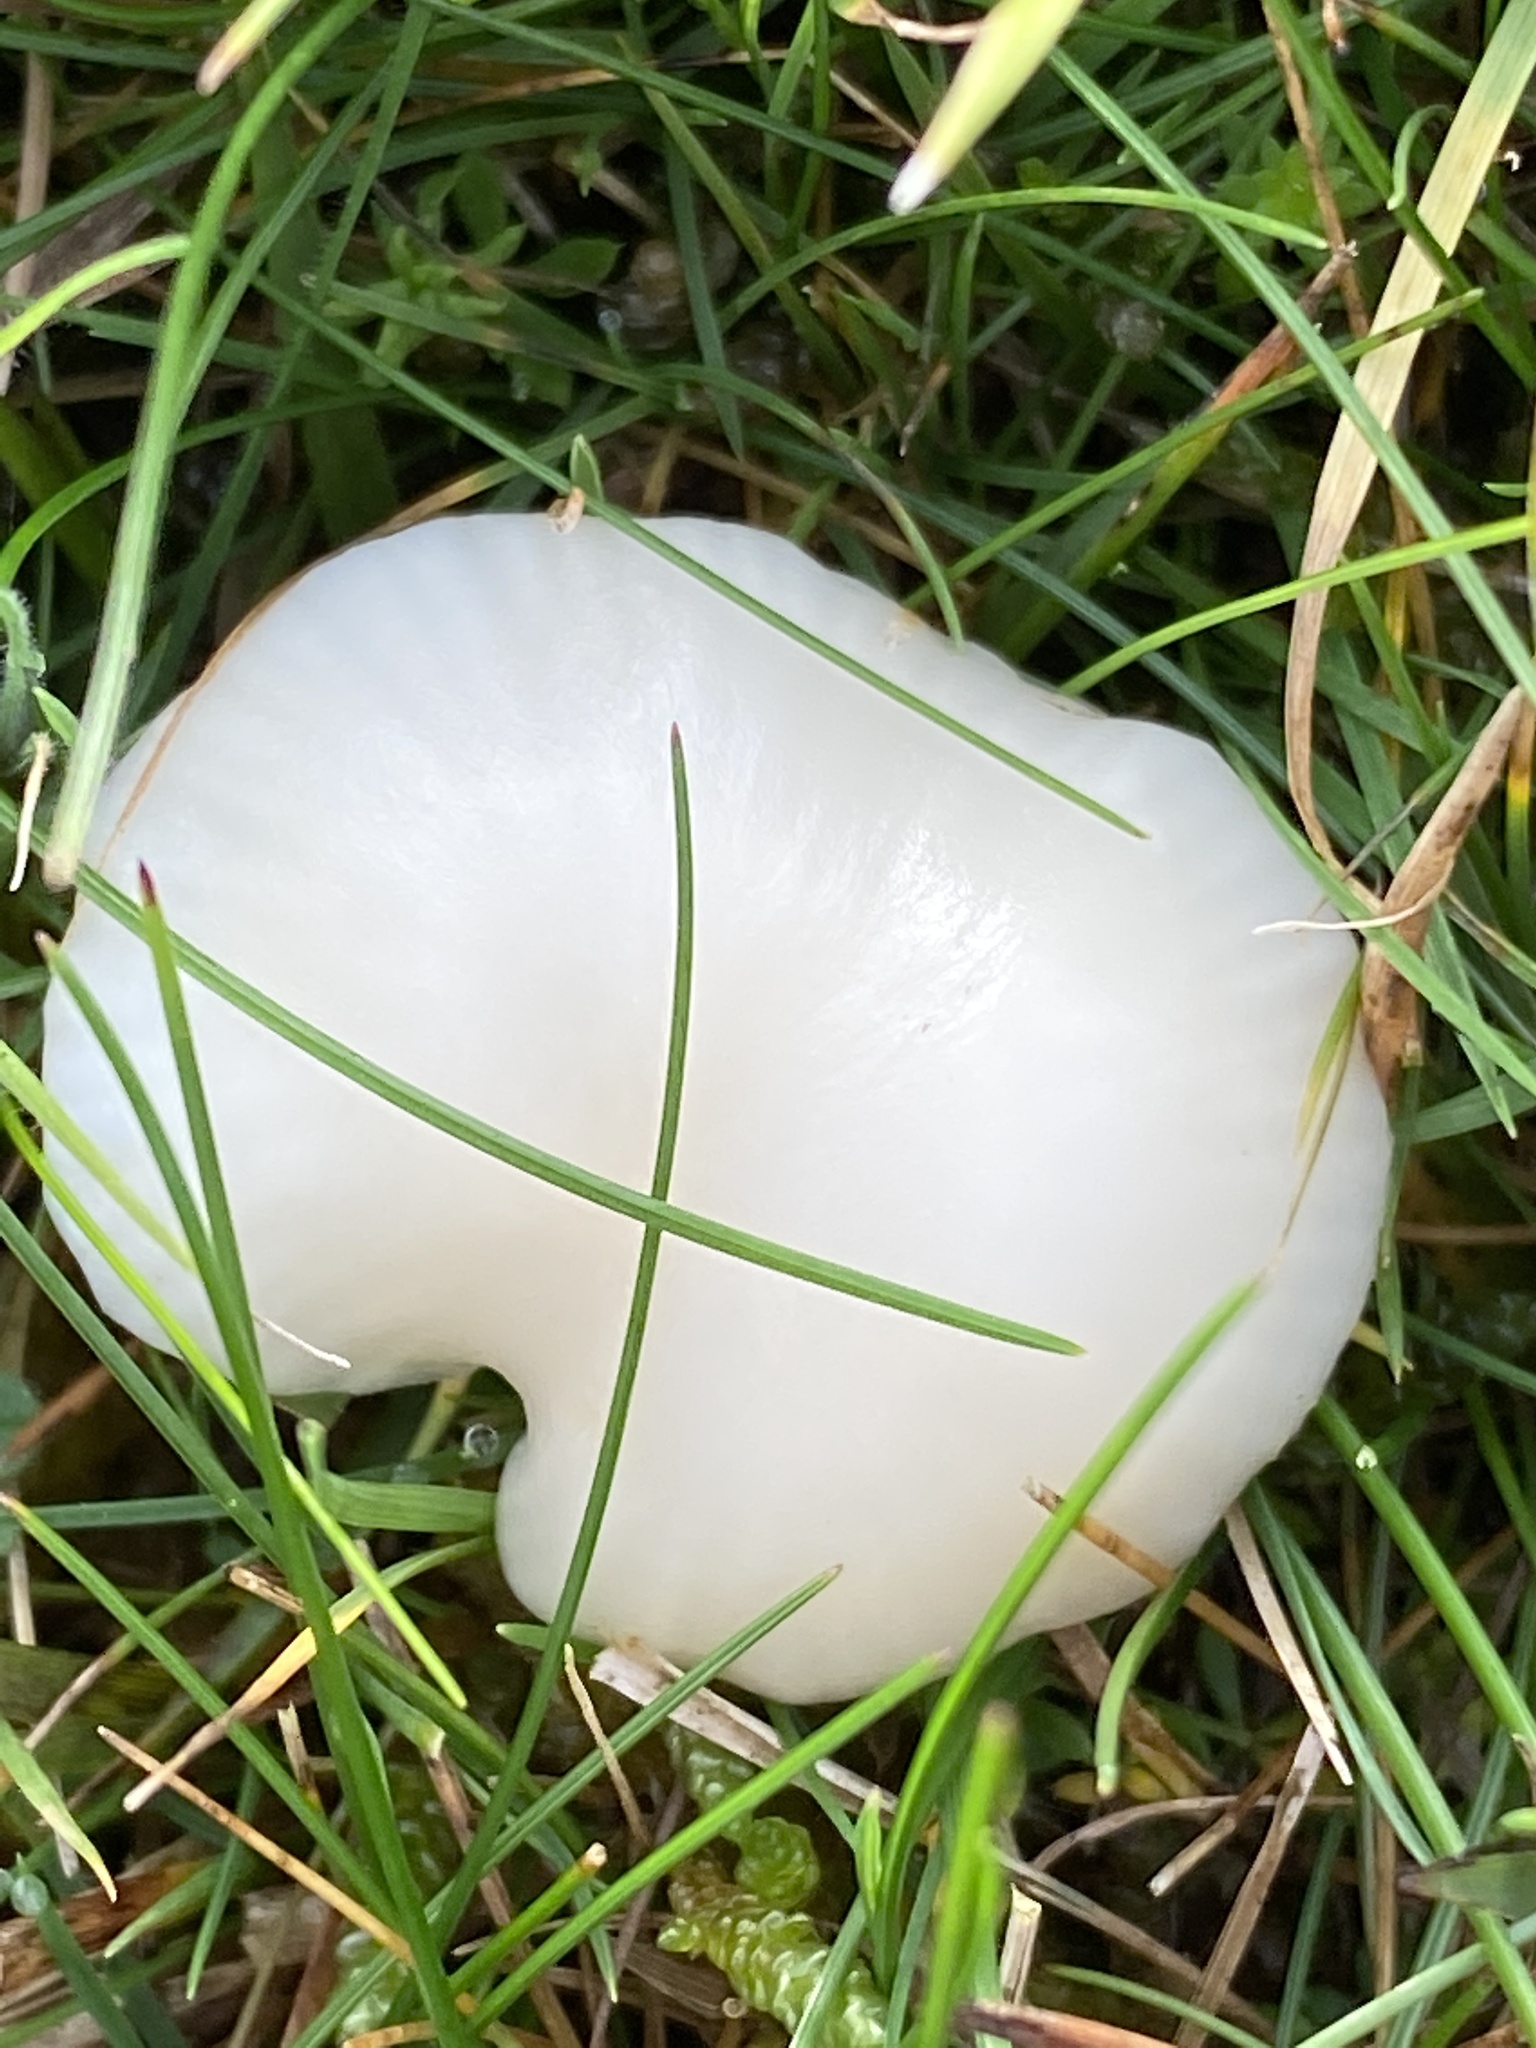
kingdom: Fungi
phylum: Basidiomycota
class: Agaricomycetes
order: Agaricales
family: Hygrophoraceae
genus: Cuphophyllus
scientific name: Cuphophyllus virgineus
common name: Snowy waxcap
